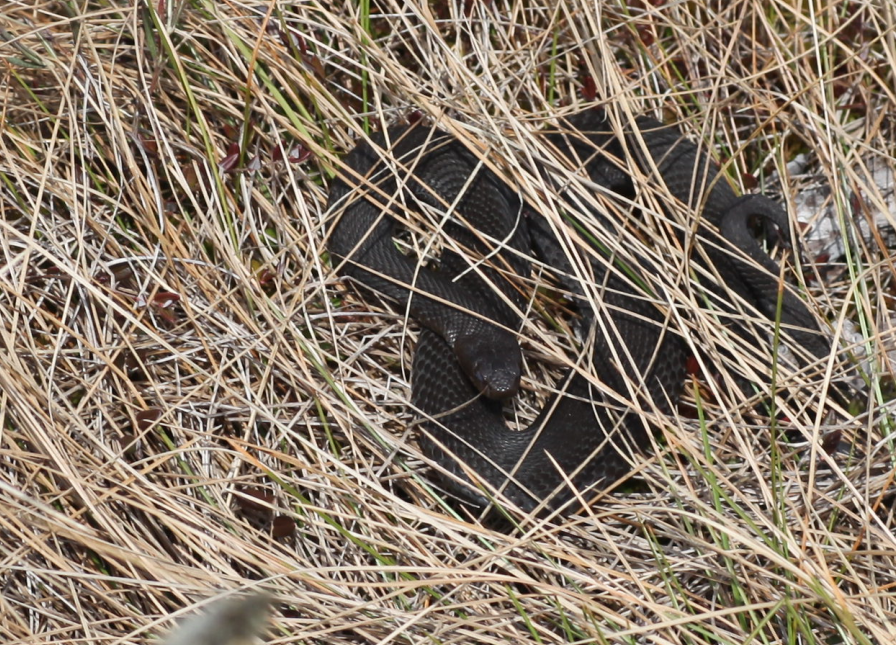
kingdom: Animalia
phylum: Chordata
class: Squamata
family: Viperidae
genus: Vipera
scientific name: Vipera berus
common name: Adder
